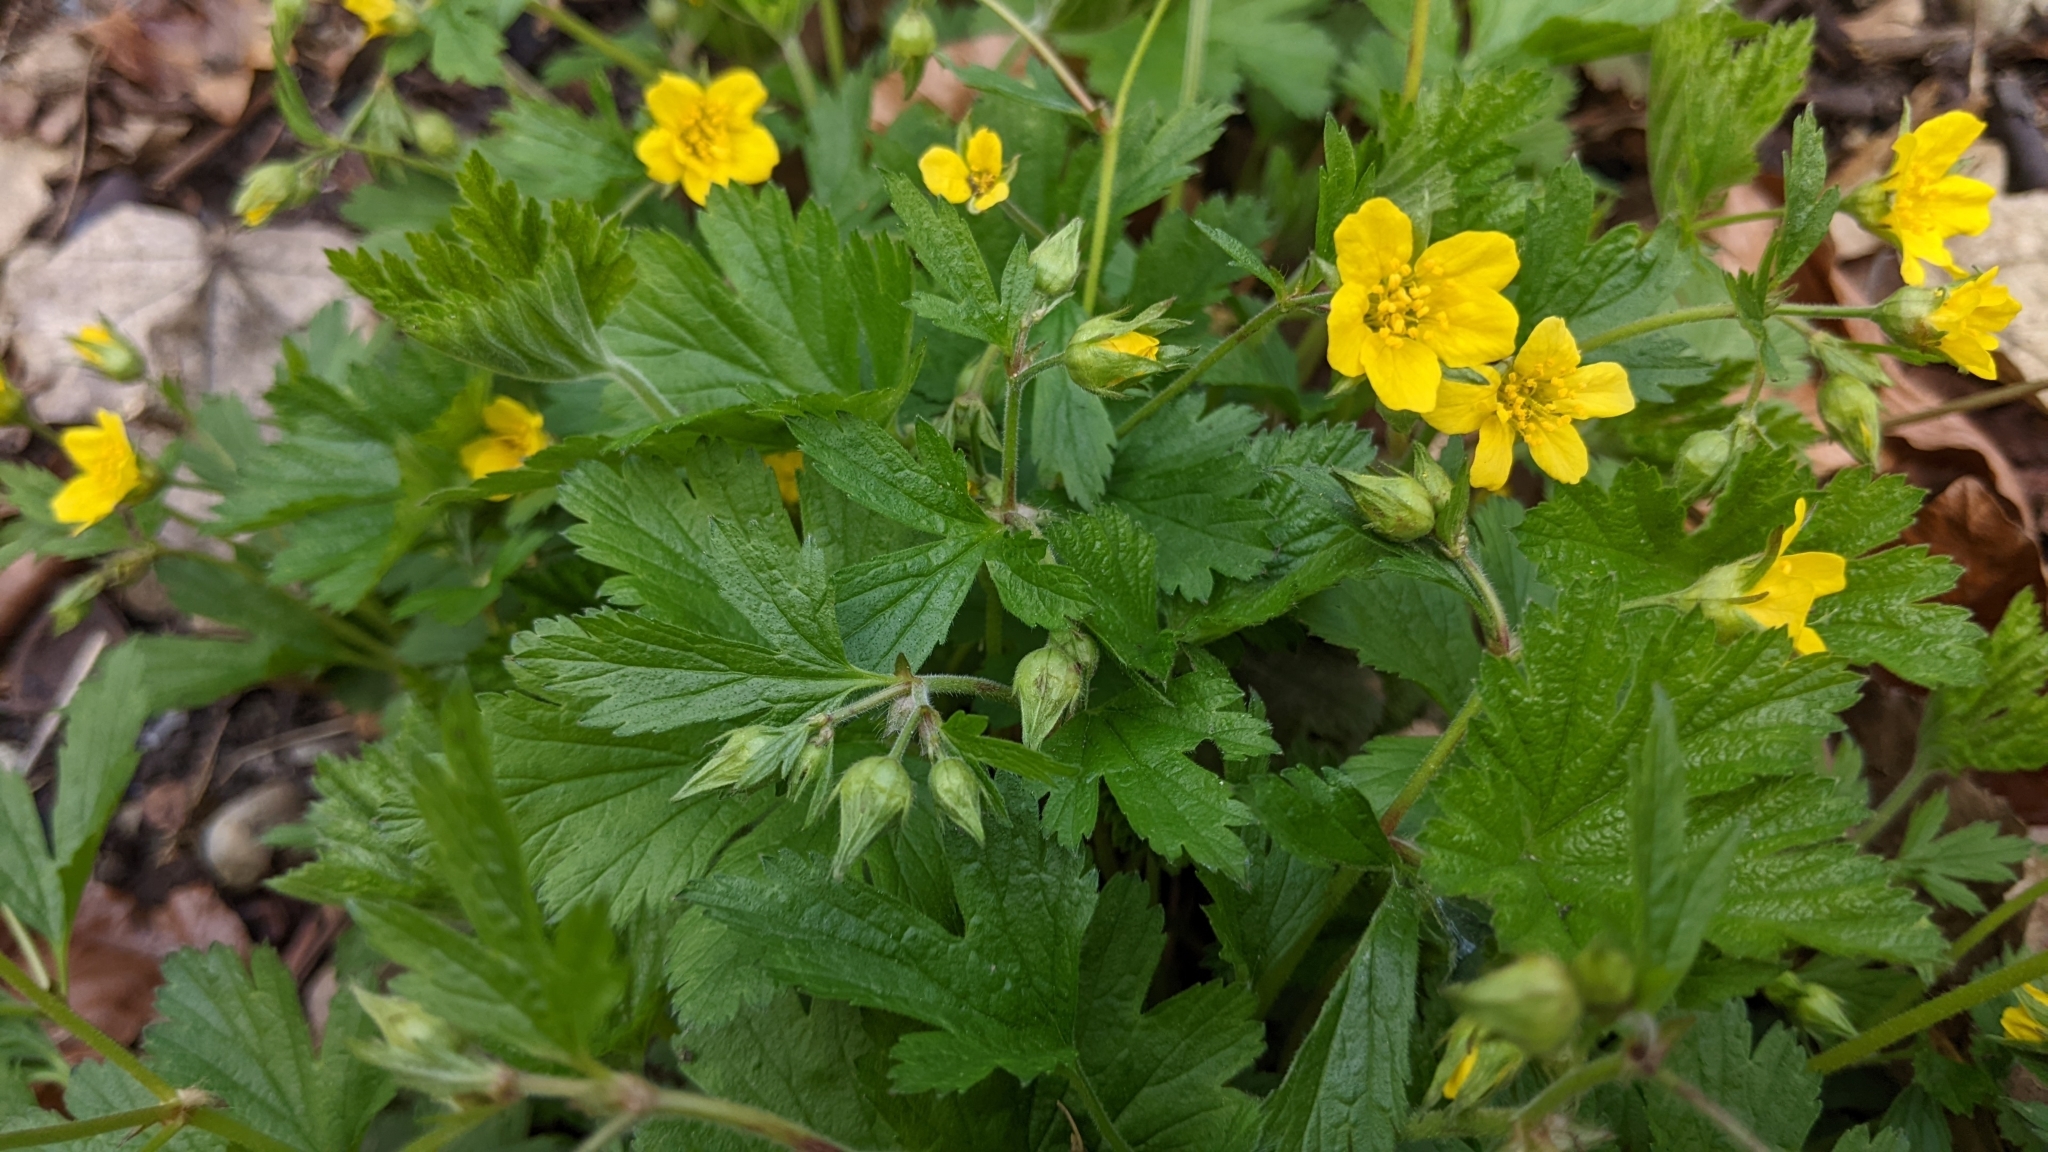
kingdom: Plantae
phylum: Tracheophyta
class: Magnoliopsida
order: Rosales
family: Rosaceae
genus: Geum
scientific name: Geum urbanum
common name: Wood avens
